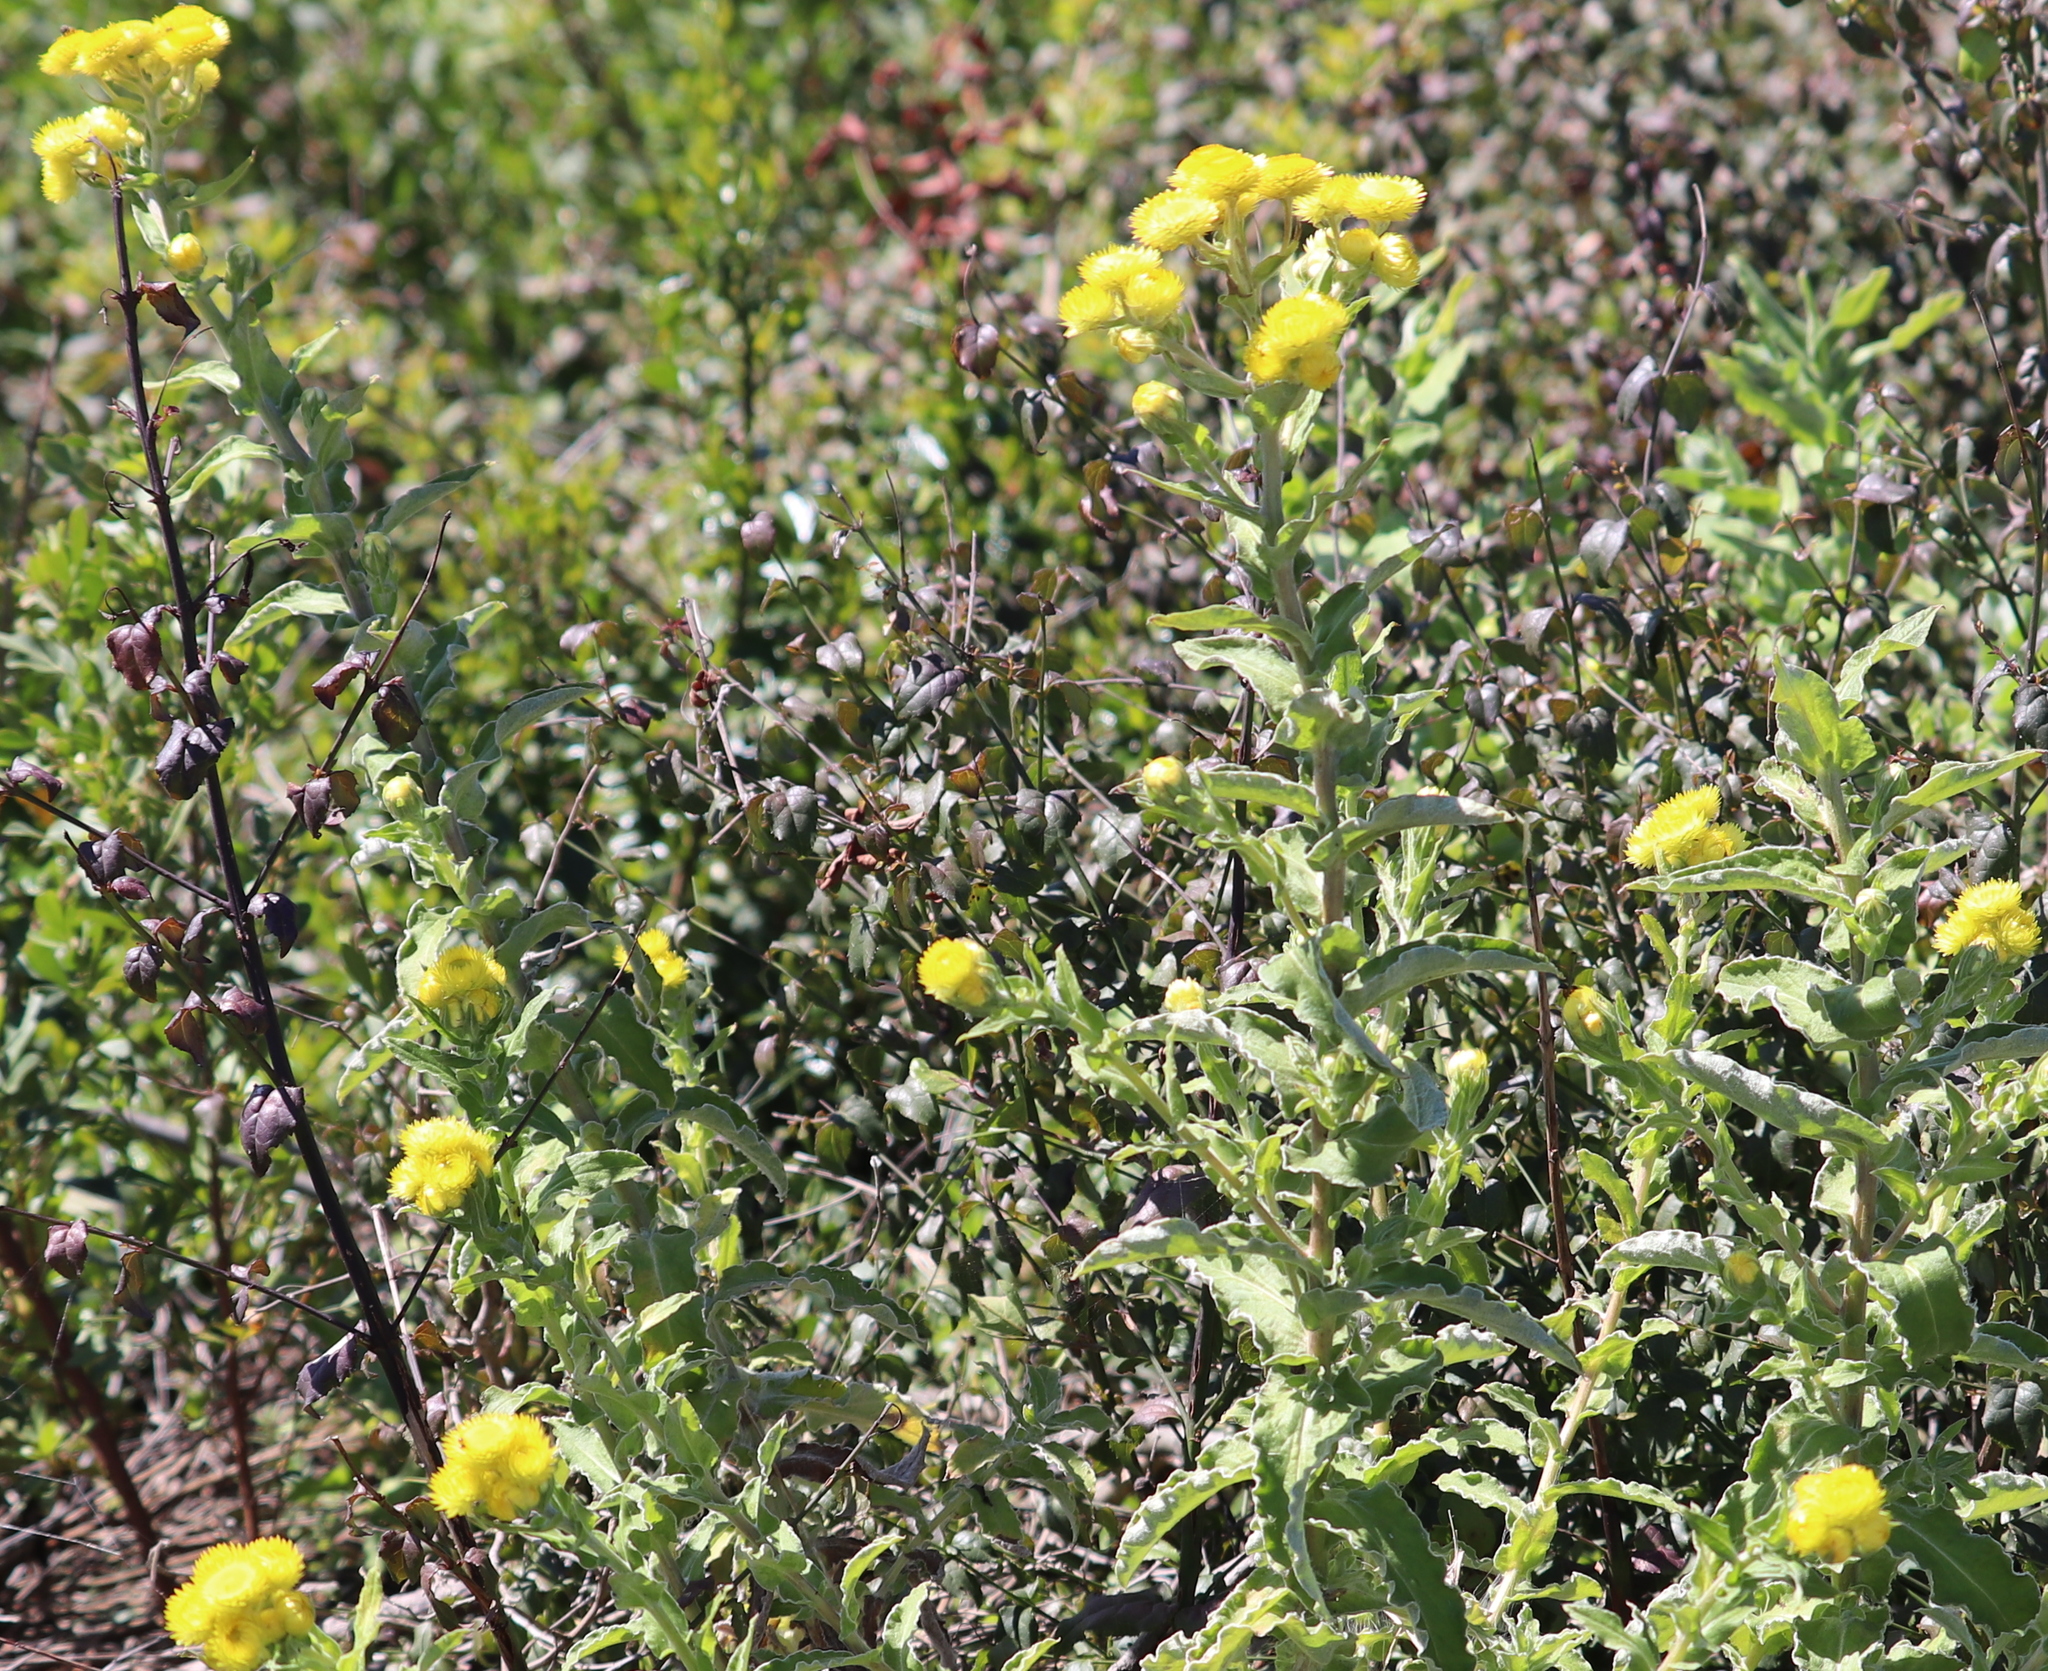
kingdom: Plantae
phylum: Tracheophyta
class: Magnoliopsida
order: Asterales
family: Asteraceae
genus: Helichrysum
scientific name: Helichrysum foetidum
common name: Stinking everlasting
